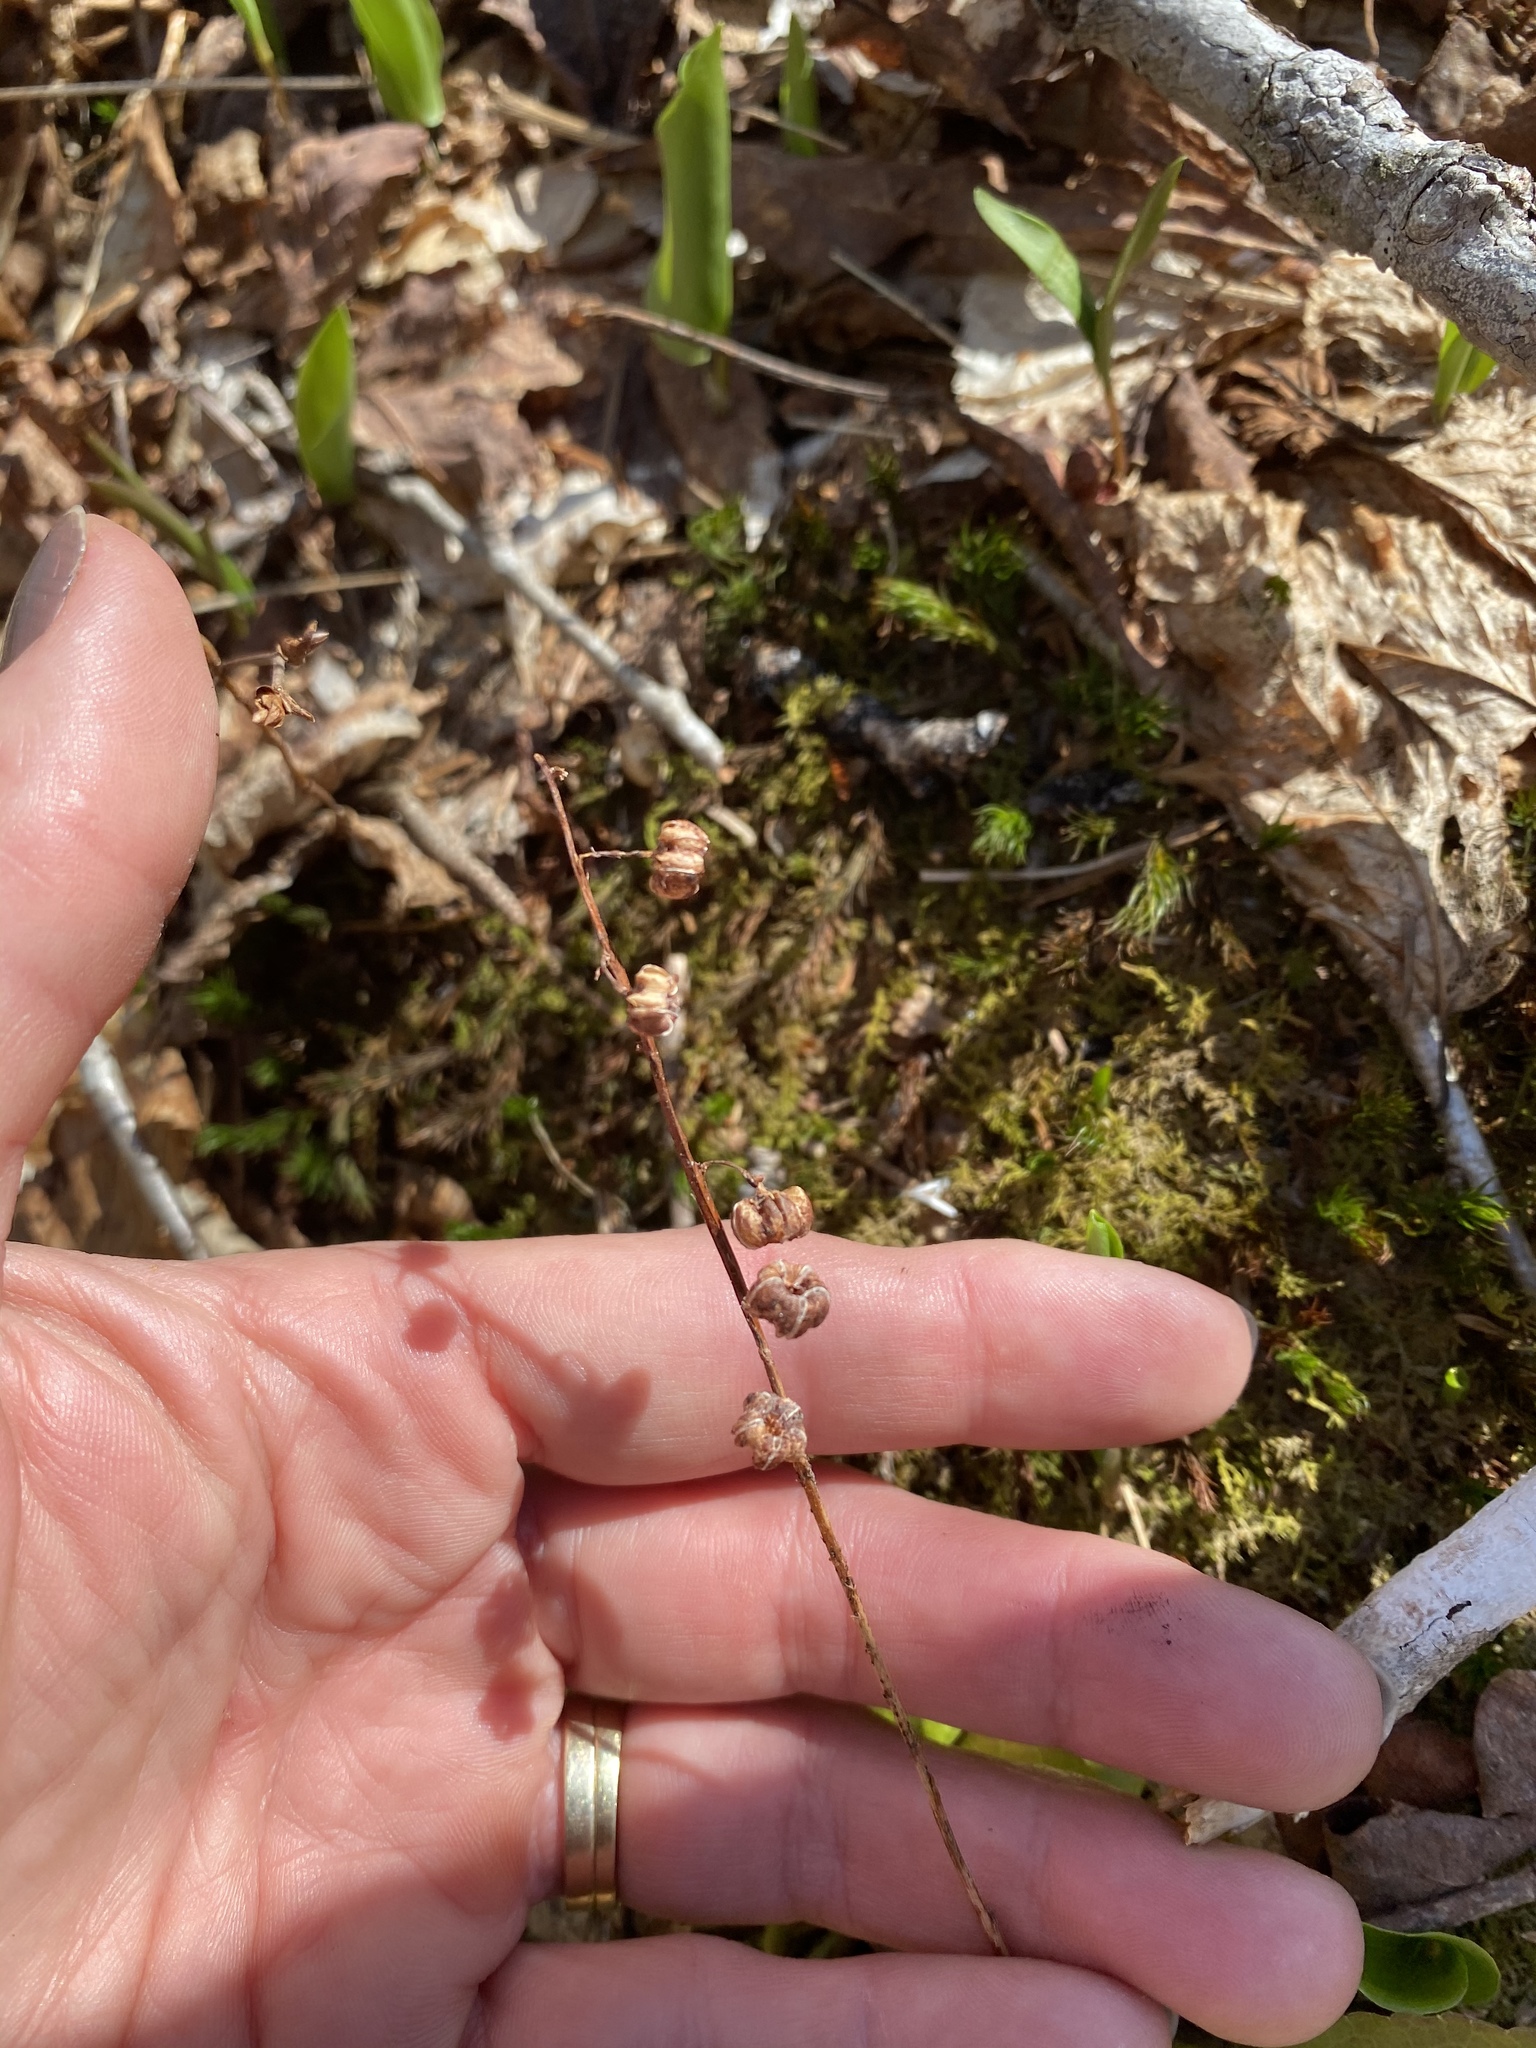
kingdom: Plantae
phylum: Tracheophyta
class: Magnoliopsida
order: Ericales
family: Ericaceae
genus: Pyrola
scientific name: Pyrola elliptica
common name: Shinleaf
